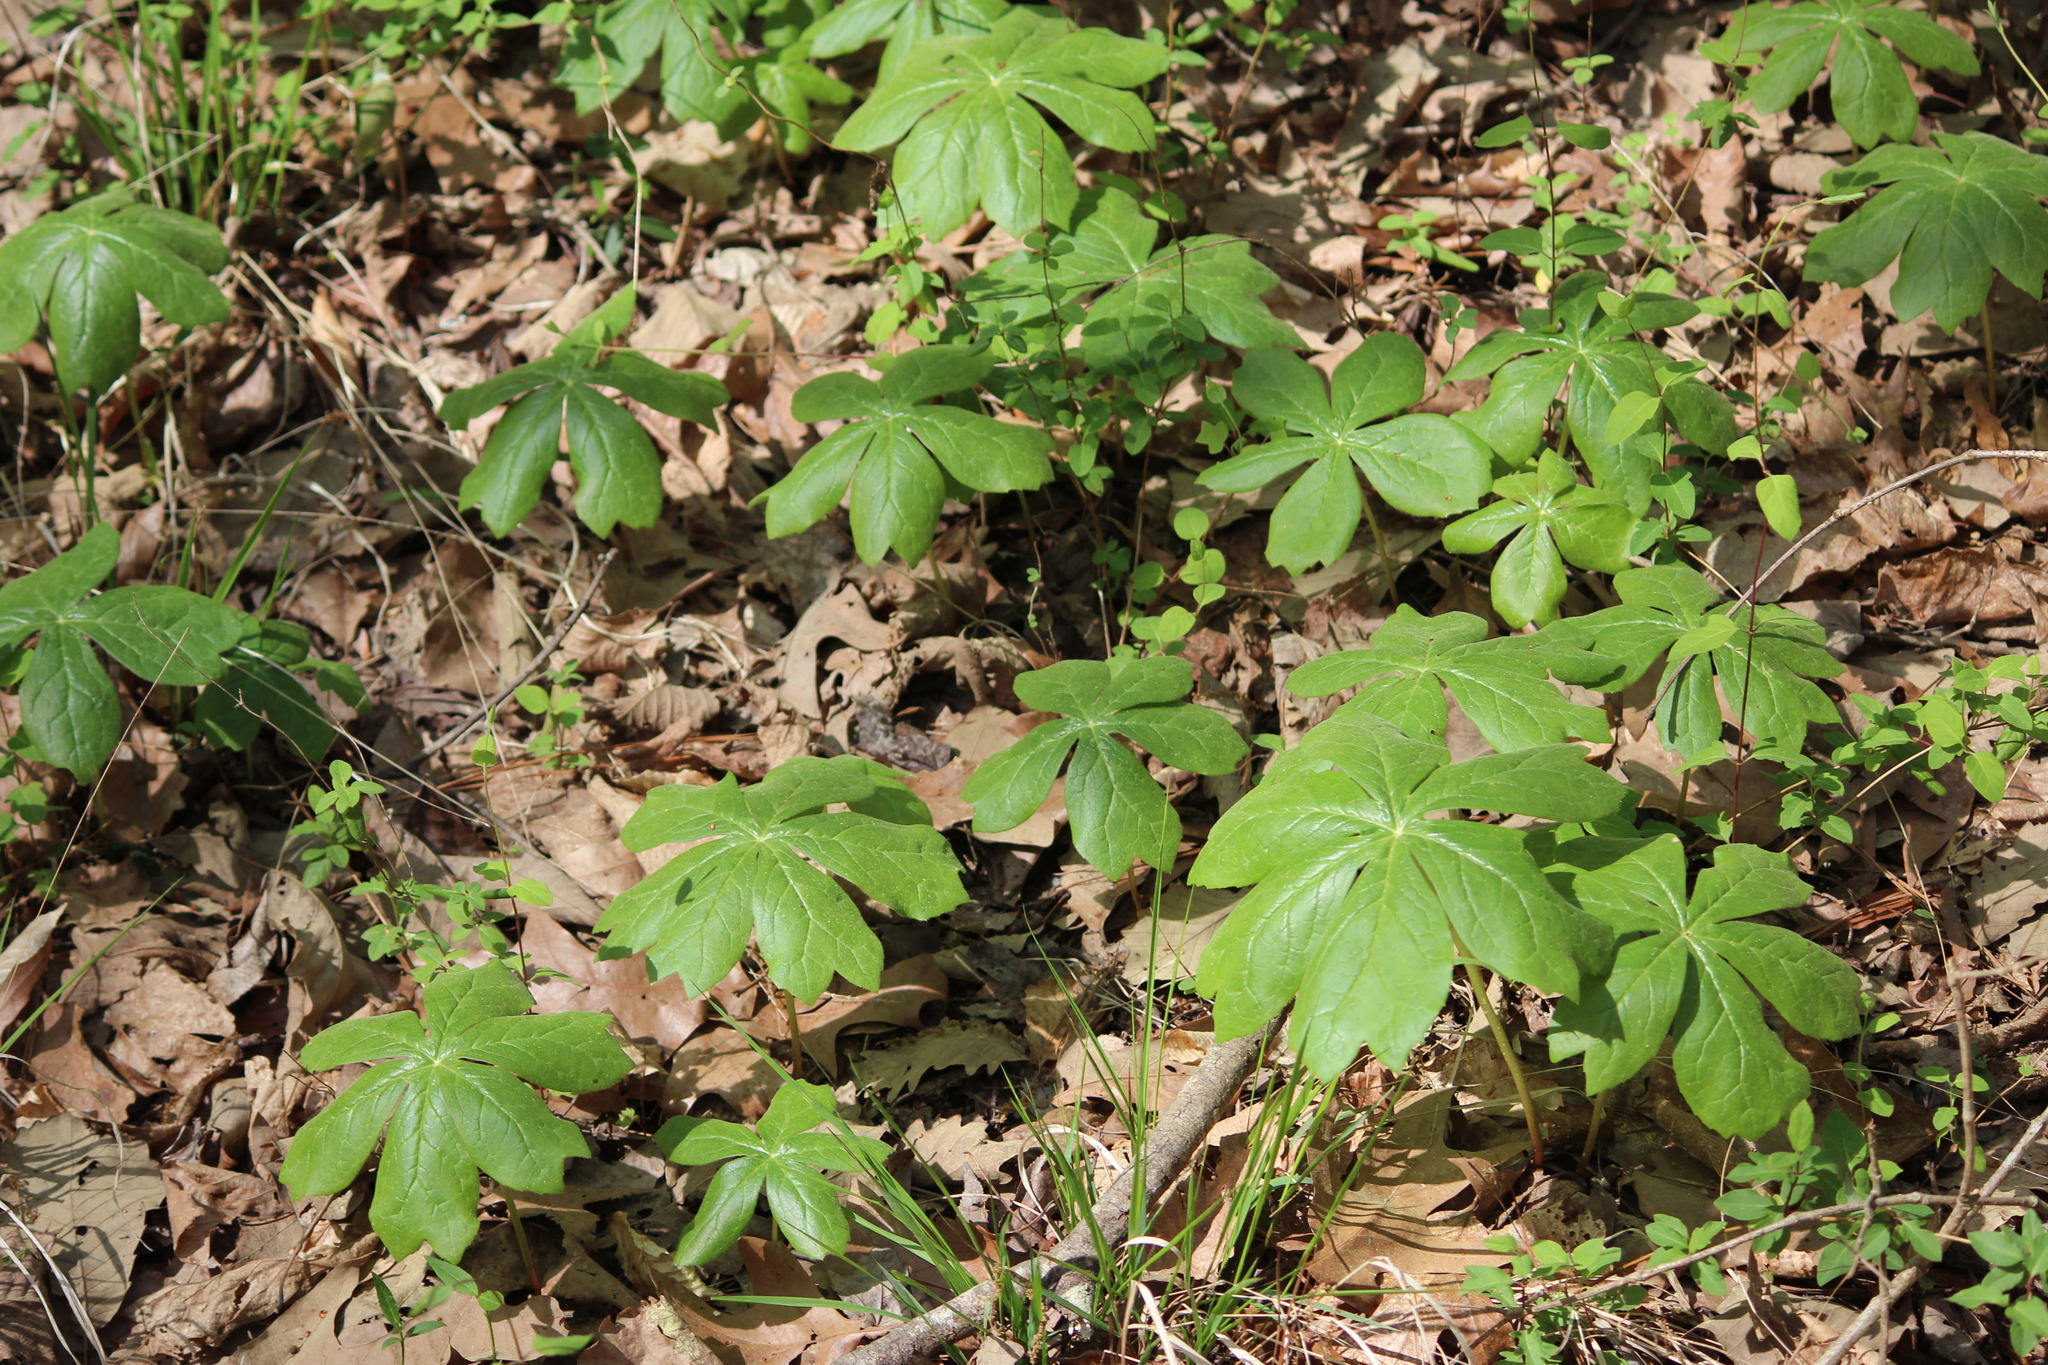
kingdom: Plantae
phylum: Tracheophyta
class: Magnoliopsida
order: Ranunculales
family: Berberidaceae
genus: Podophyllum
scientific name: Podophyllum peltatum
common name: Wild mandrake
